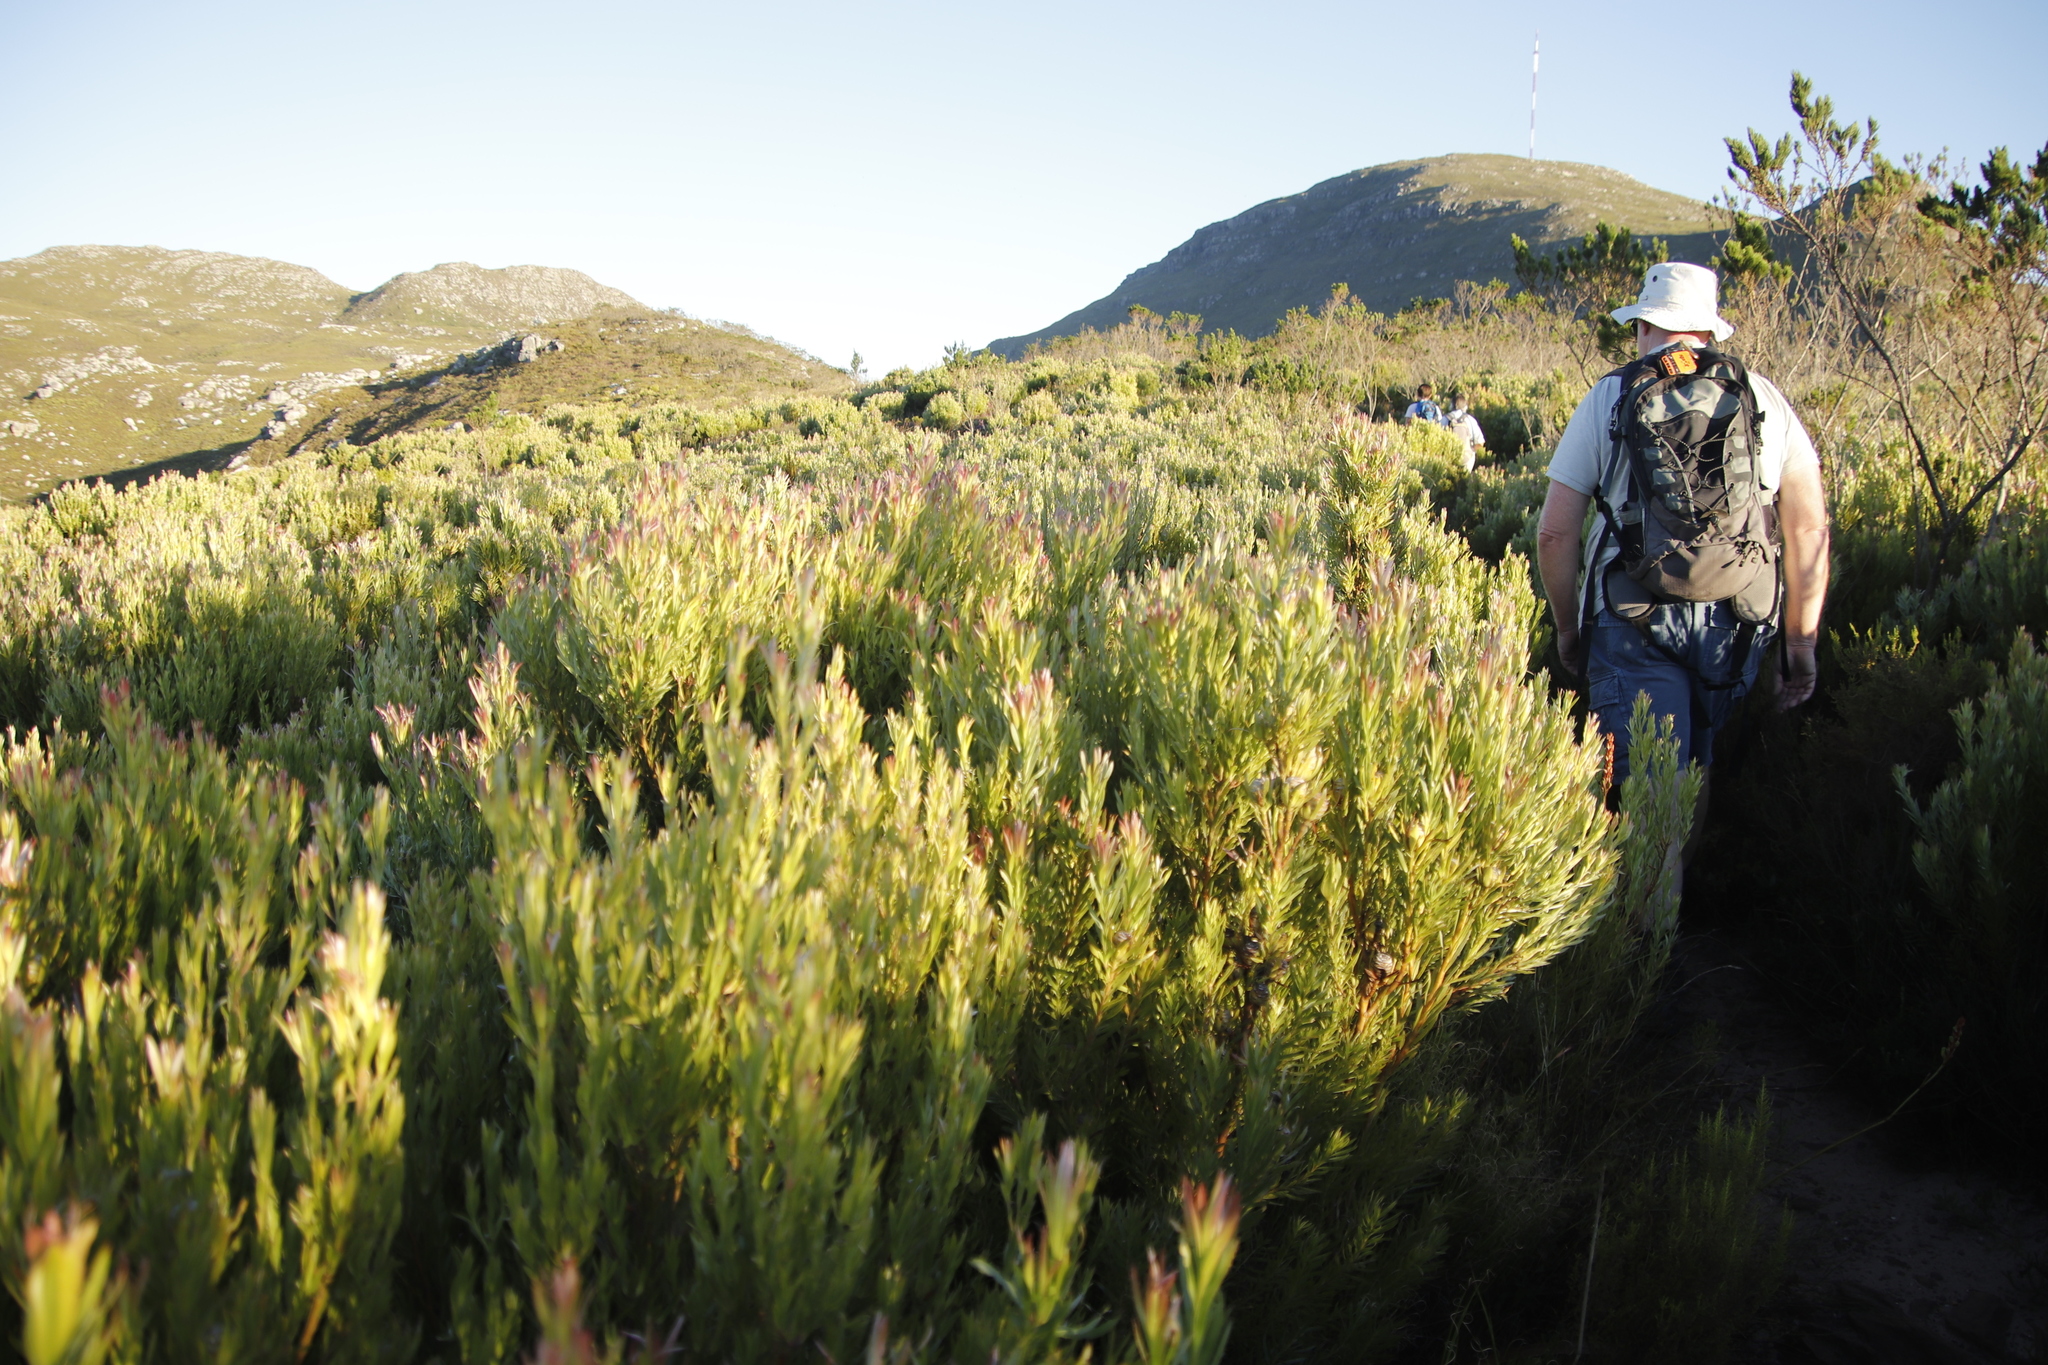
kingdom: Plantae
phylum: Tracheophyta
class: Magnoliopsida
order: Proteales
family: Proteaceae
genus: Leucadendron
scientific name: Leucadendron xanthoconus
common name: Sickle-leaf conebush
